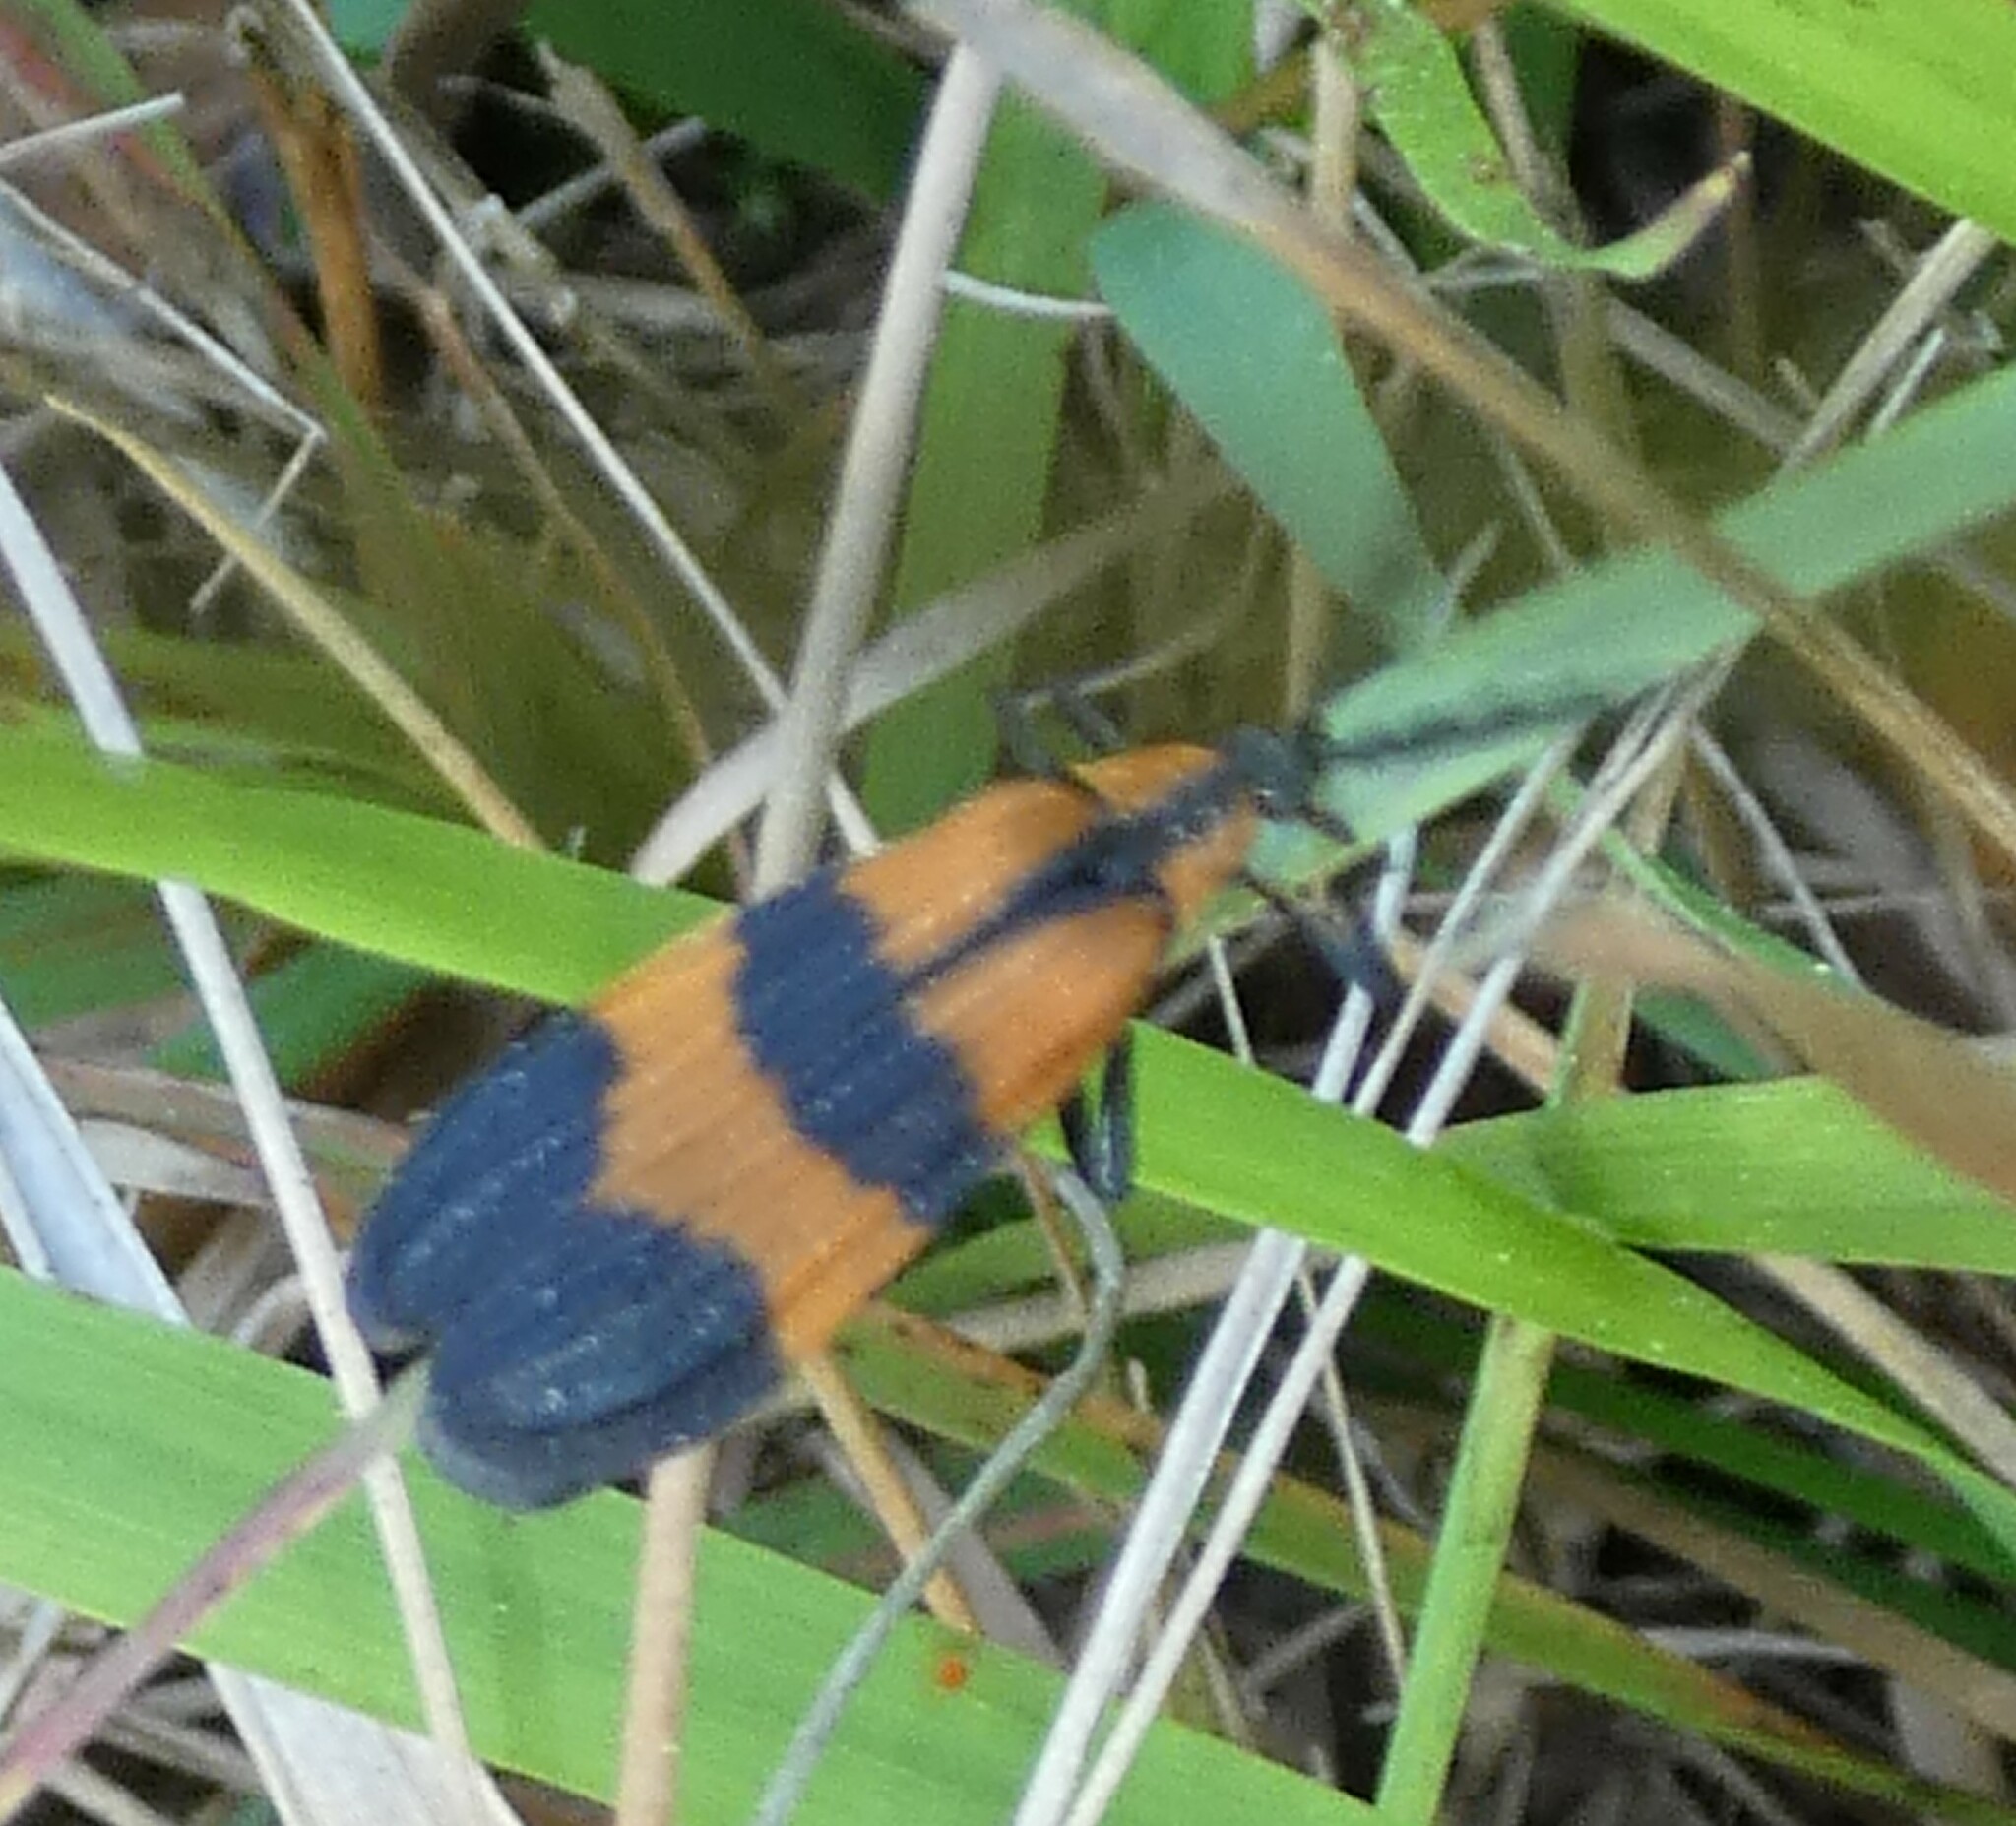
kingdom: Animalia
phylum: Arthropoda
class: Insecta
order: Coleoptera
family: Lycidae
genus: Calopteron
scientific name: Calopteron discrepans
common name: Banded net-winged beetle
